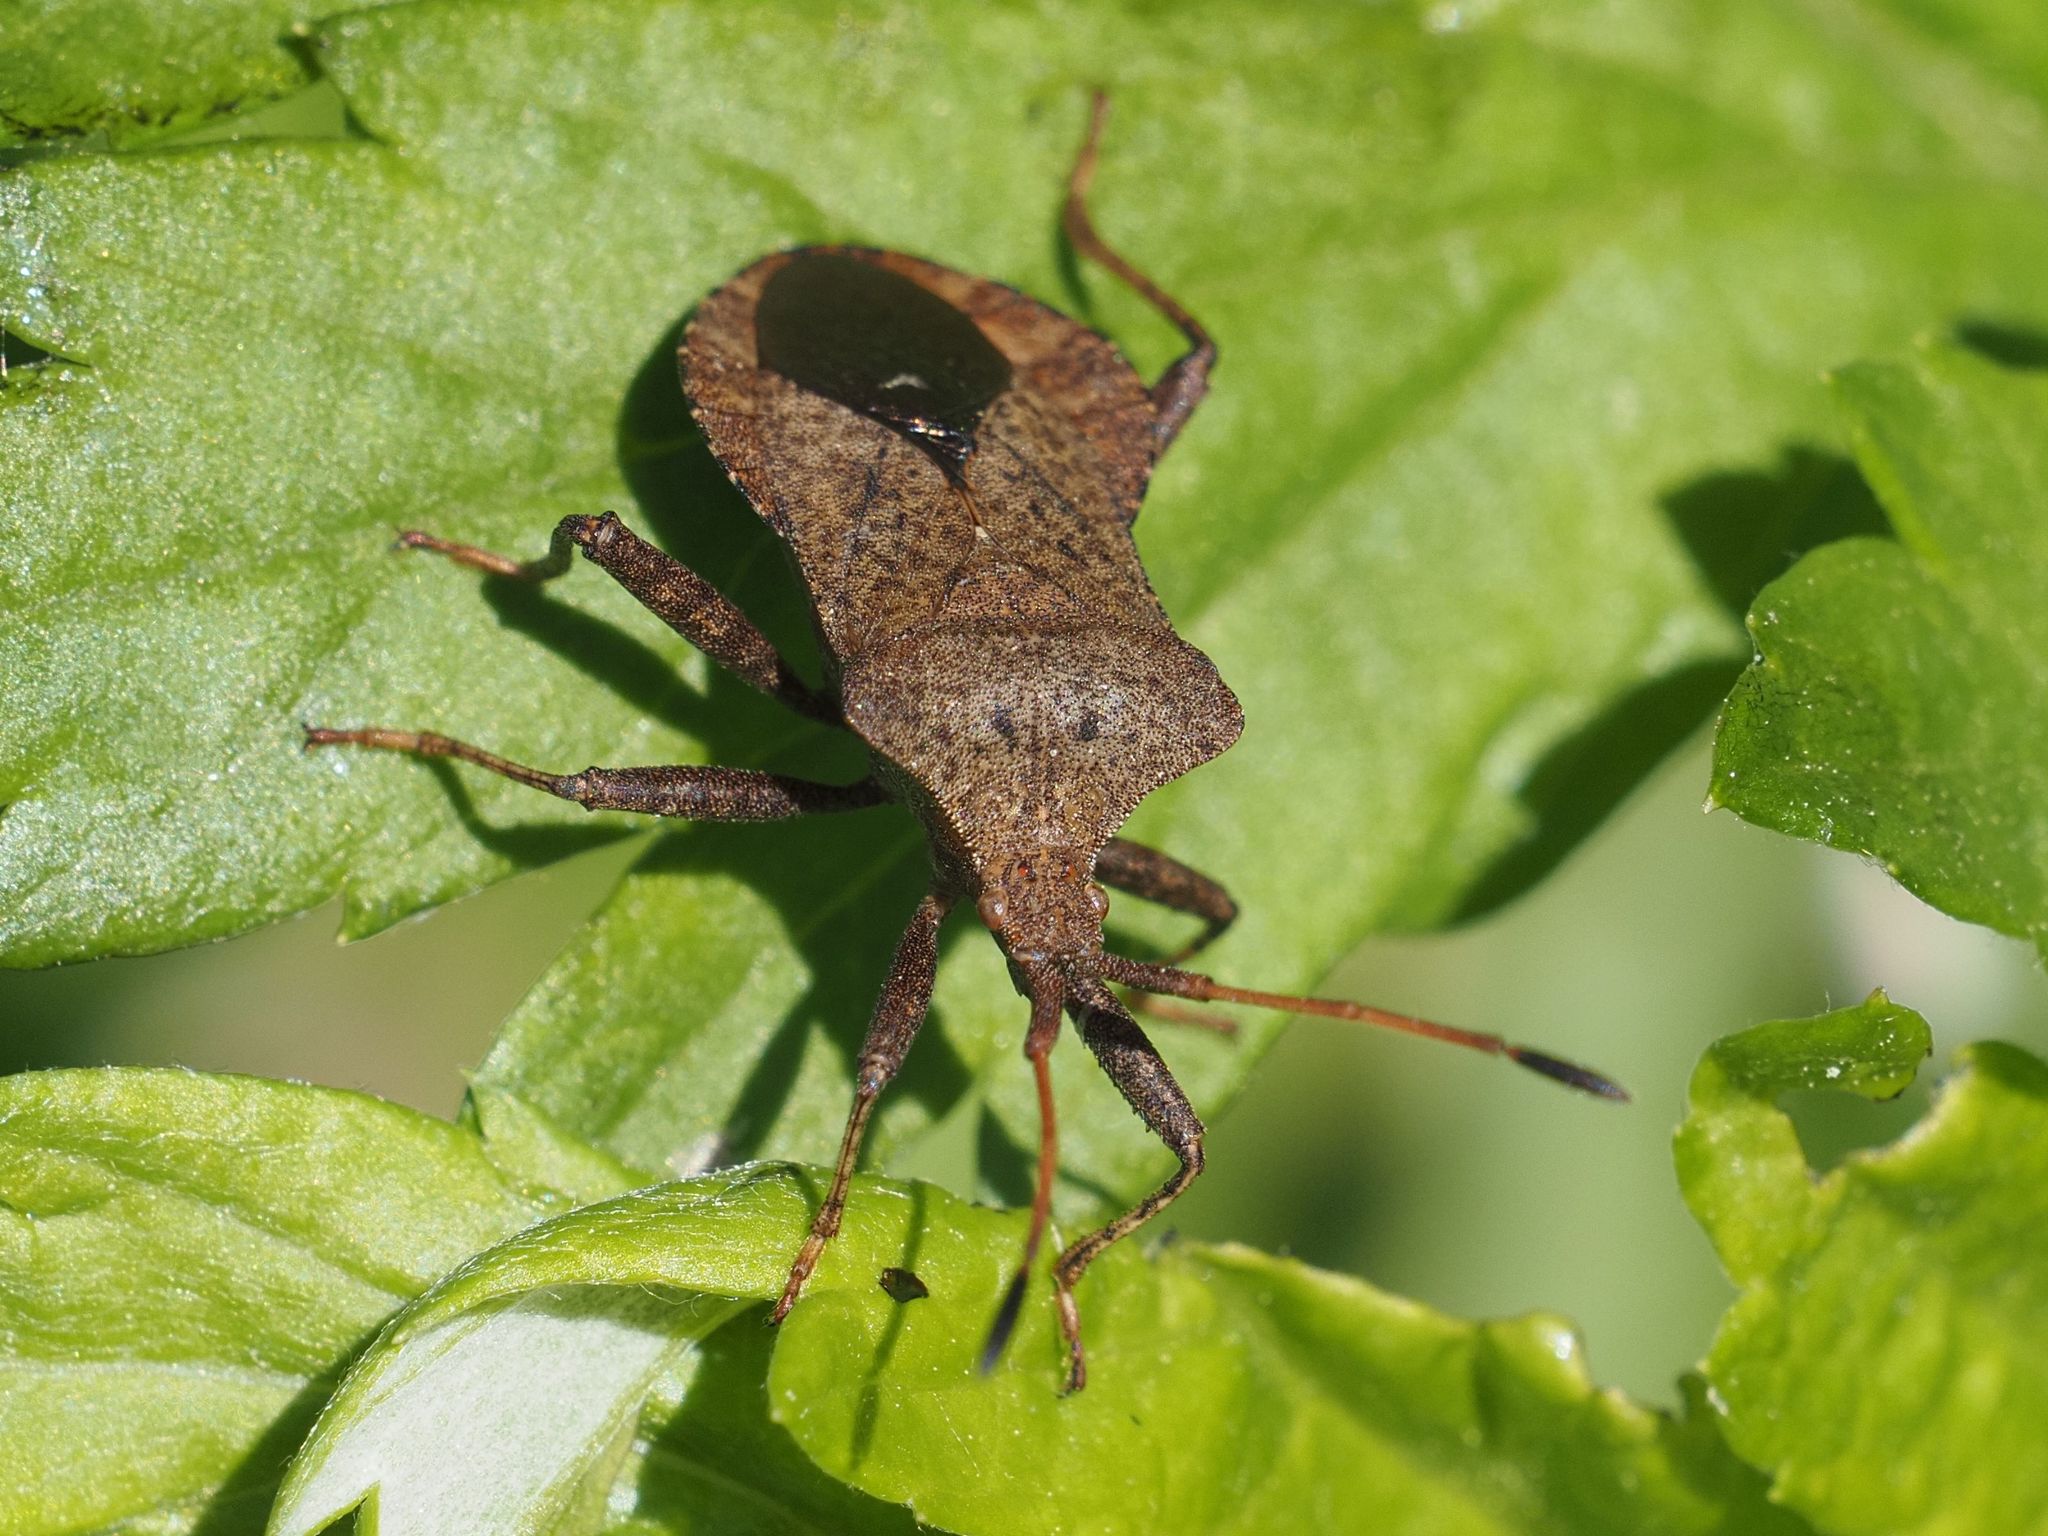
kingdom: Animalia
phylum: Arthropoda
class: Insecta
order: Hemiptera
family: Coreidae
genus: Coreus
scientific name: Coreus marginatus
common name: Dock bug
